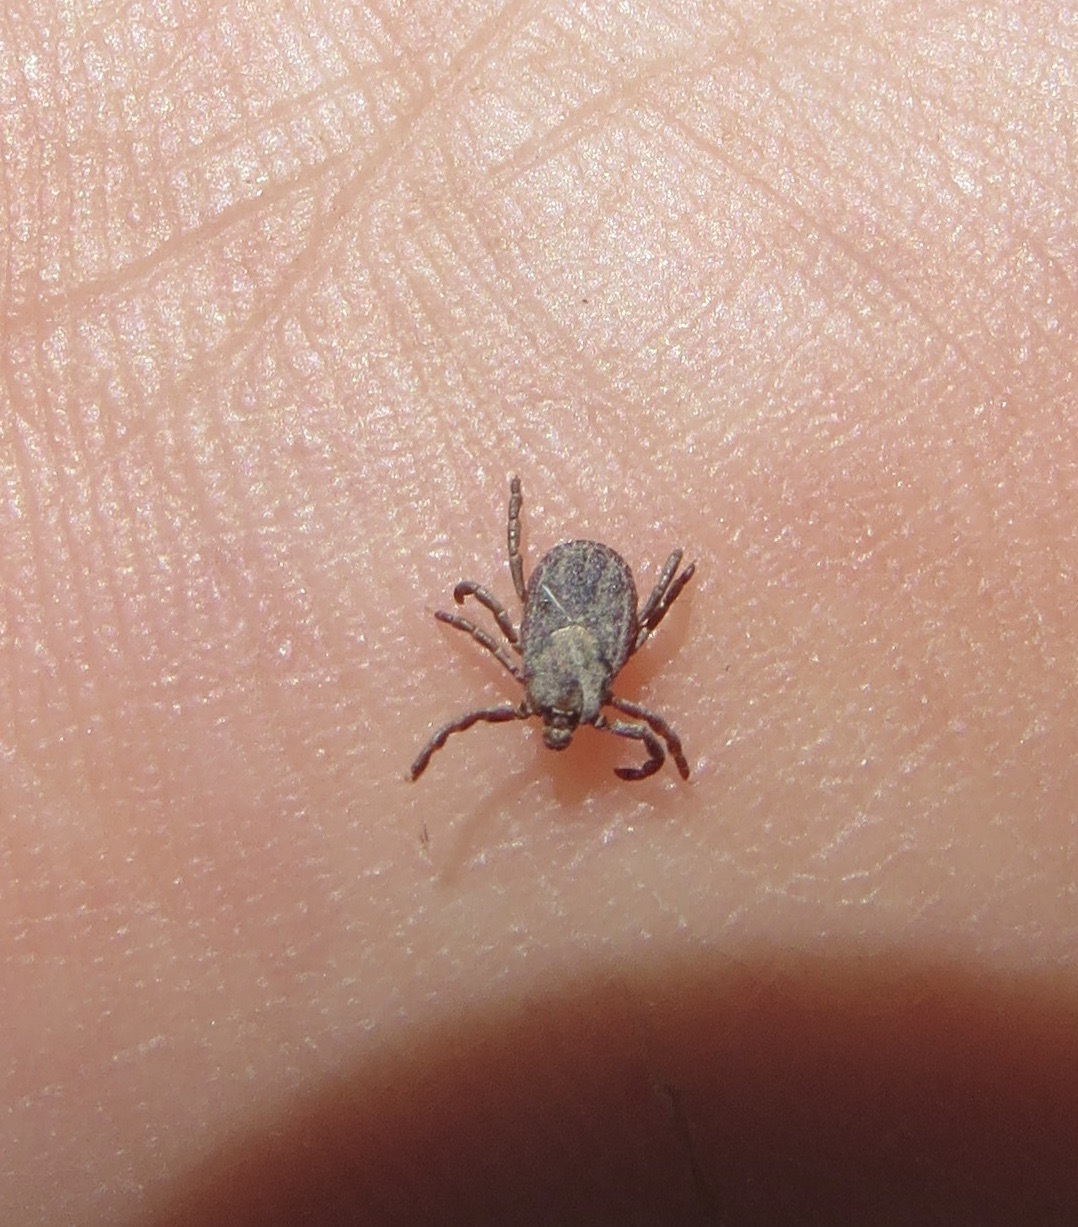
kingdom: Animalia
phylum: Arthropoda
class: Arachnida
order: Ixodida
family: Ixodidae
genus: Dermacentor
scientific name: Dermacentor occidentalis
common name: Net tick
